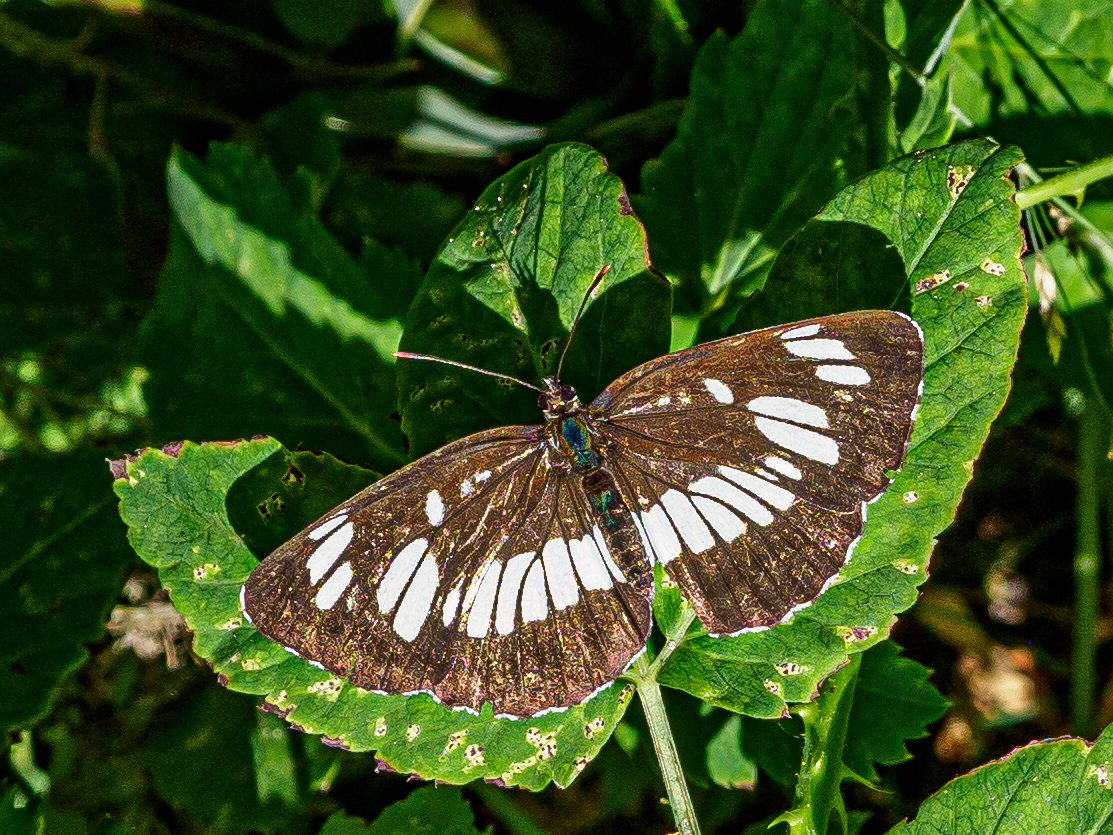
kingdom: Animalia
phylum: Arthropoda
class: Insecta
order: Lepidoptera
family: Nymphalidae
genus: Neptis
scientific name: Neptis rivularis
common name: Hungarian glider
